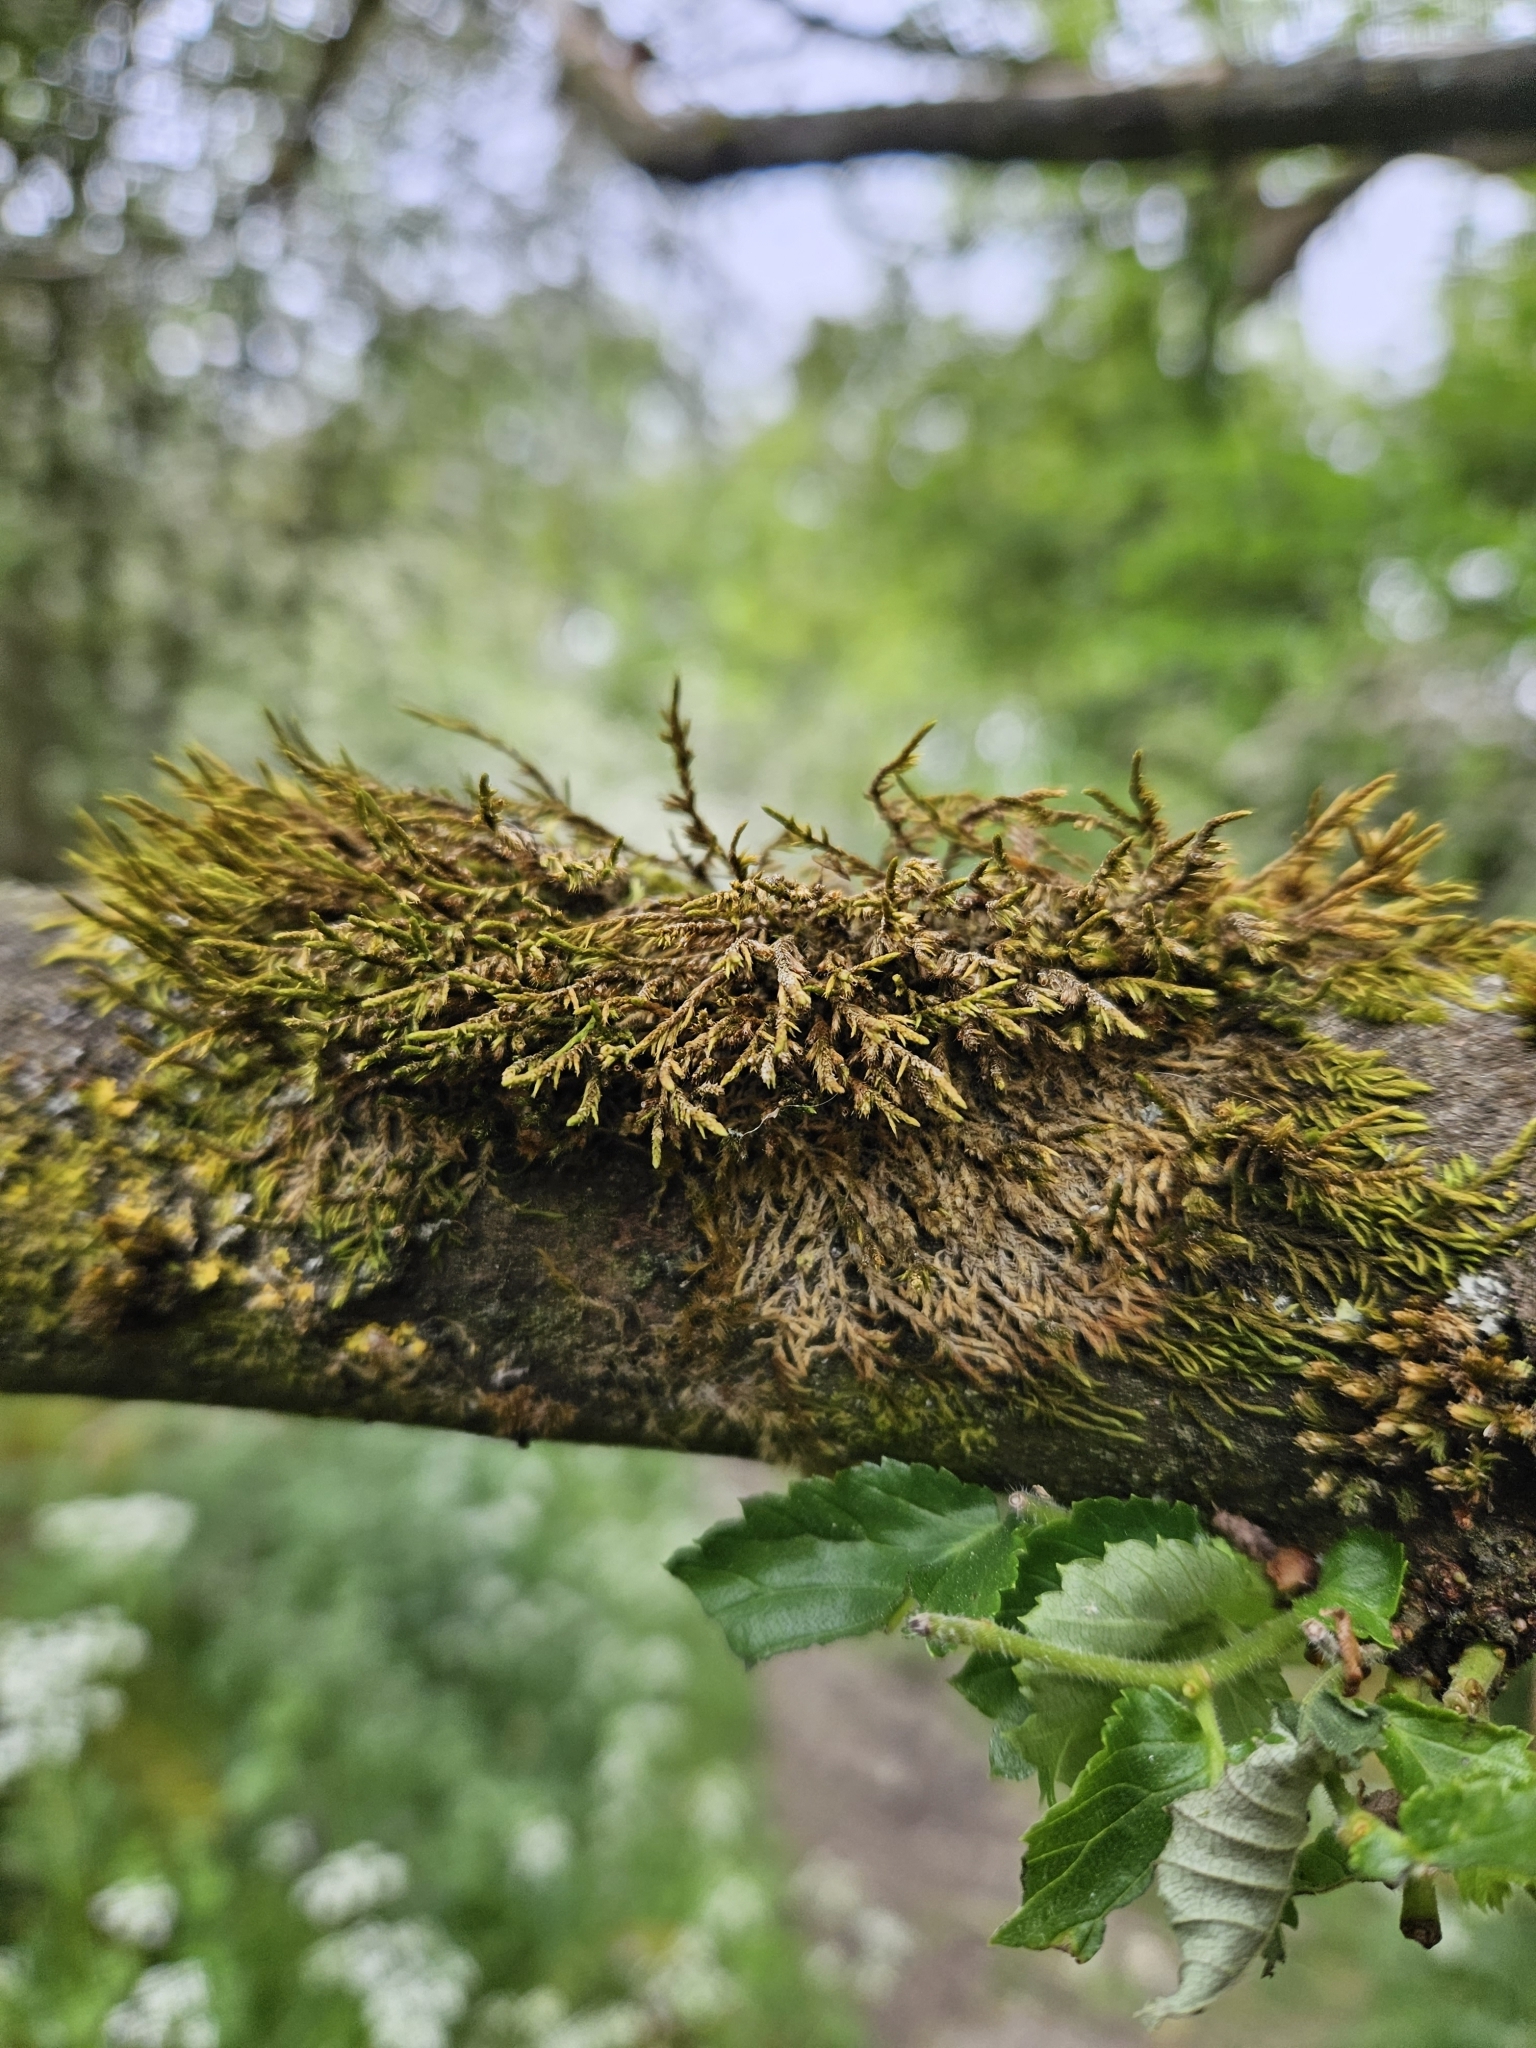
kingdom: Plantae
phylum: Bryophyta
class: Bryopsida
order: Hypnales
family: Cryphaeaceae
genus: Cryphaea
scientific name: Cryphaea heteromalla
